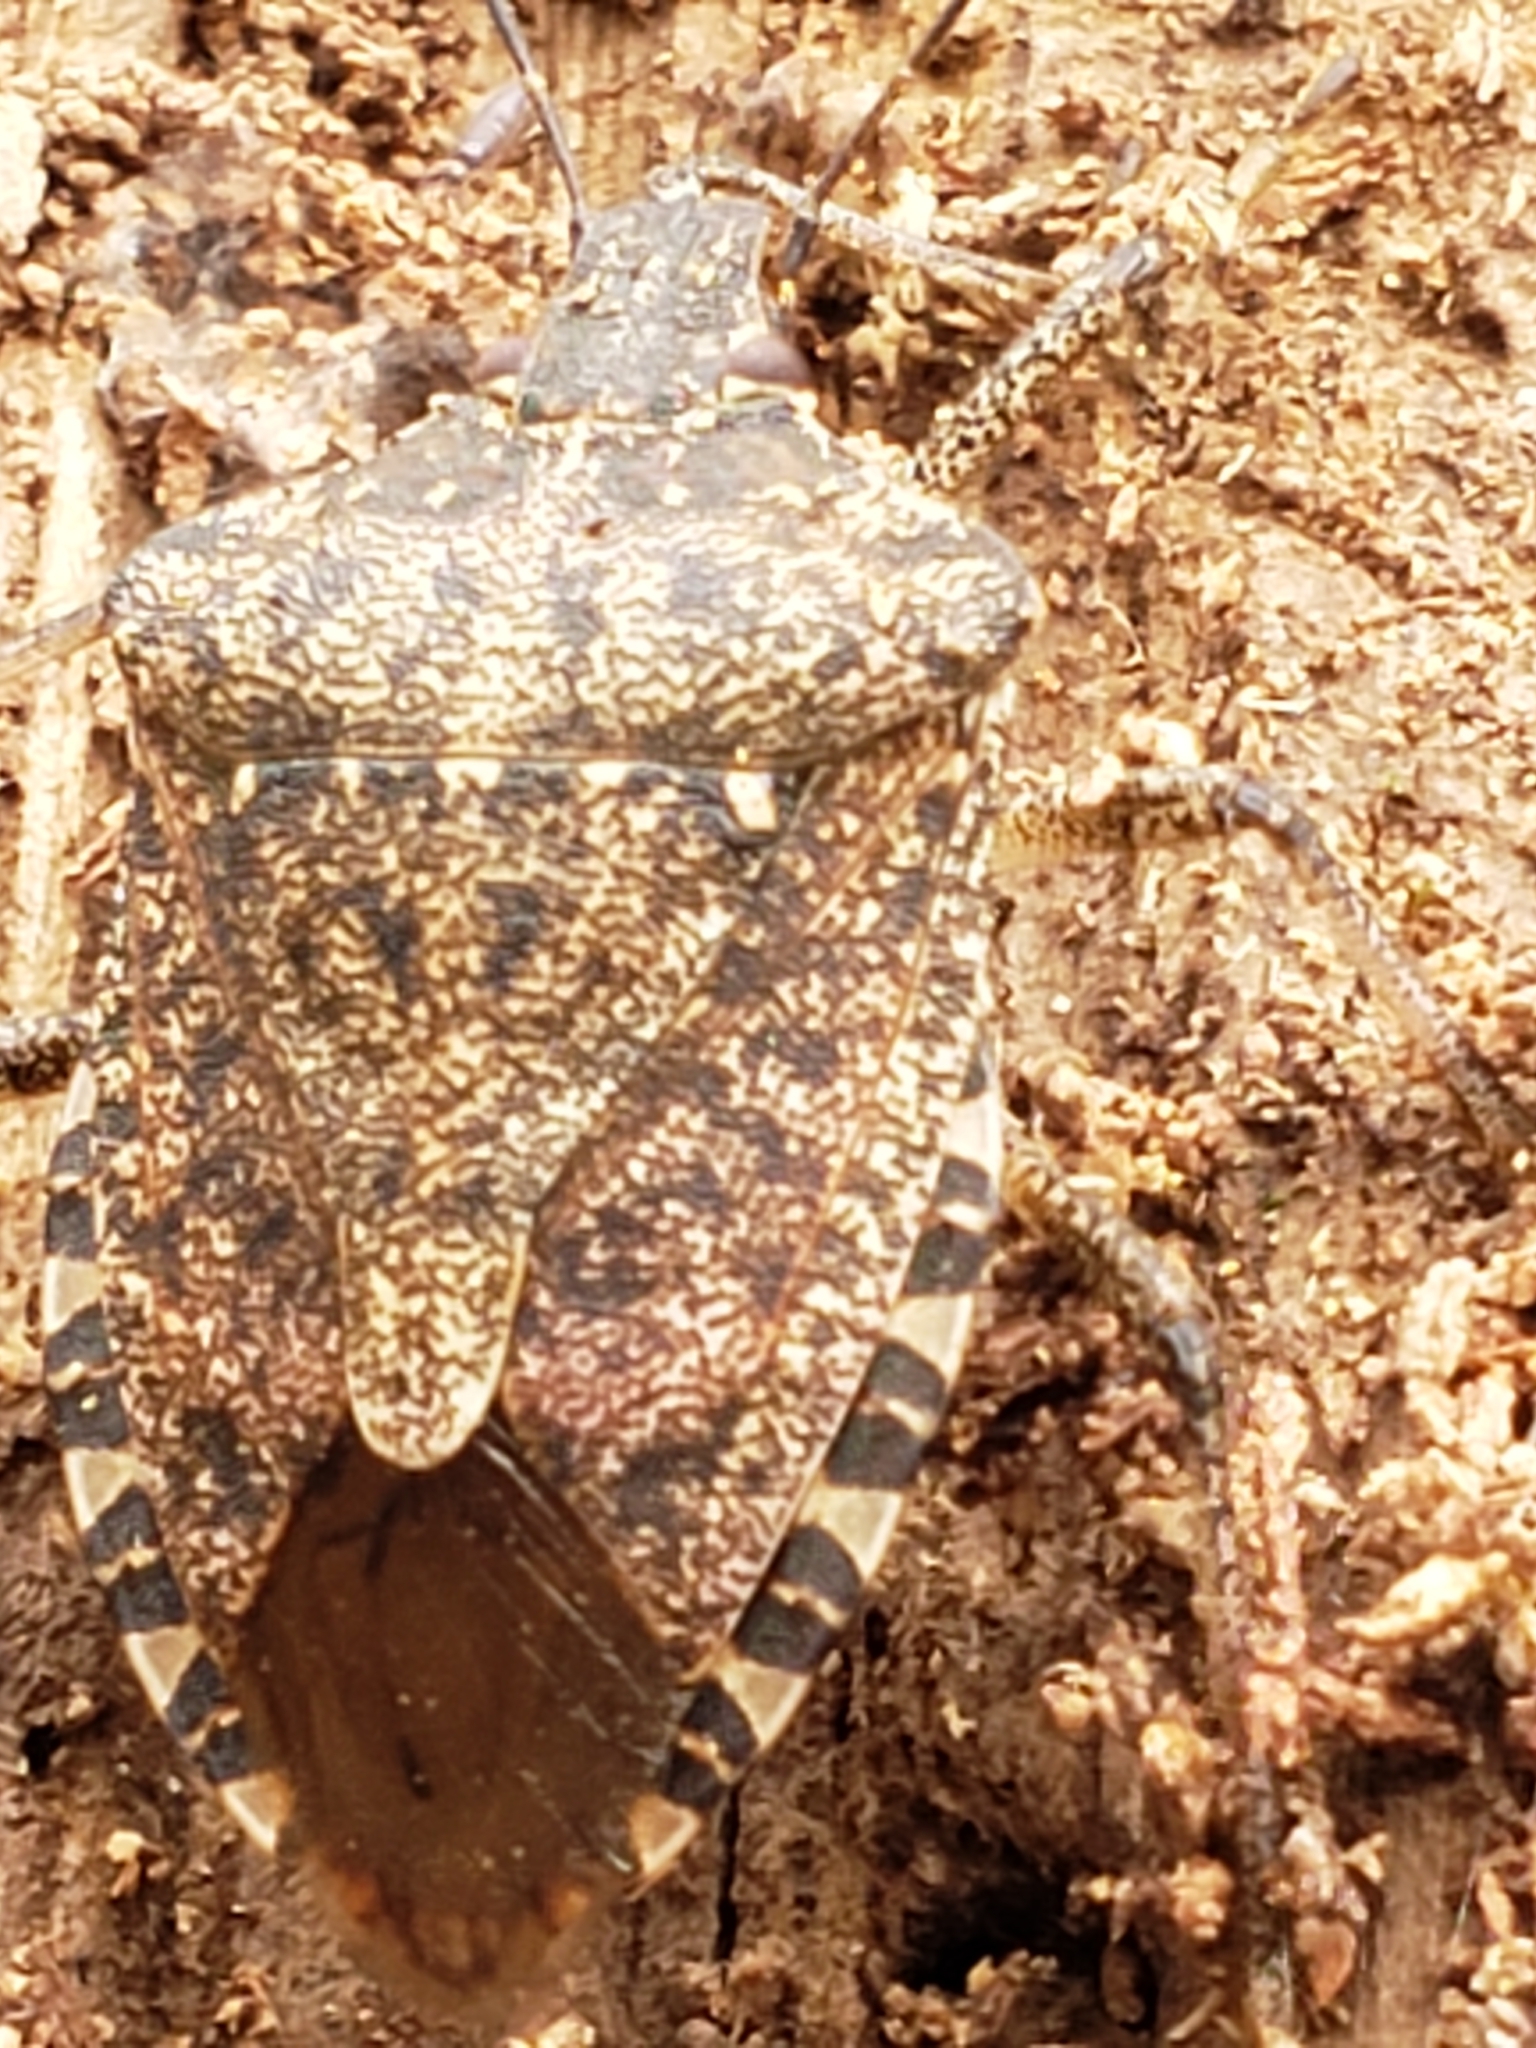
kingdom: Animalia
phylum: Arthropoda
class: Insecta
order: Hemiptera
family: Pentatomidae
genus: Halyomorpha
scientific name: Halyomorpha halys
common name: Brown marmorated stink bug
